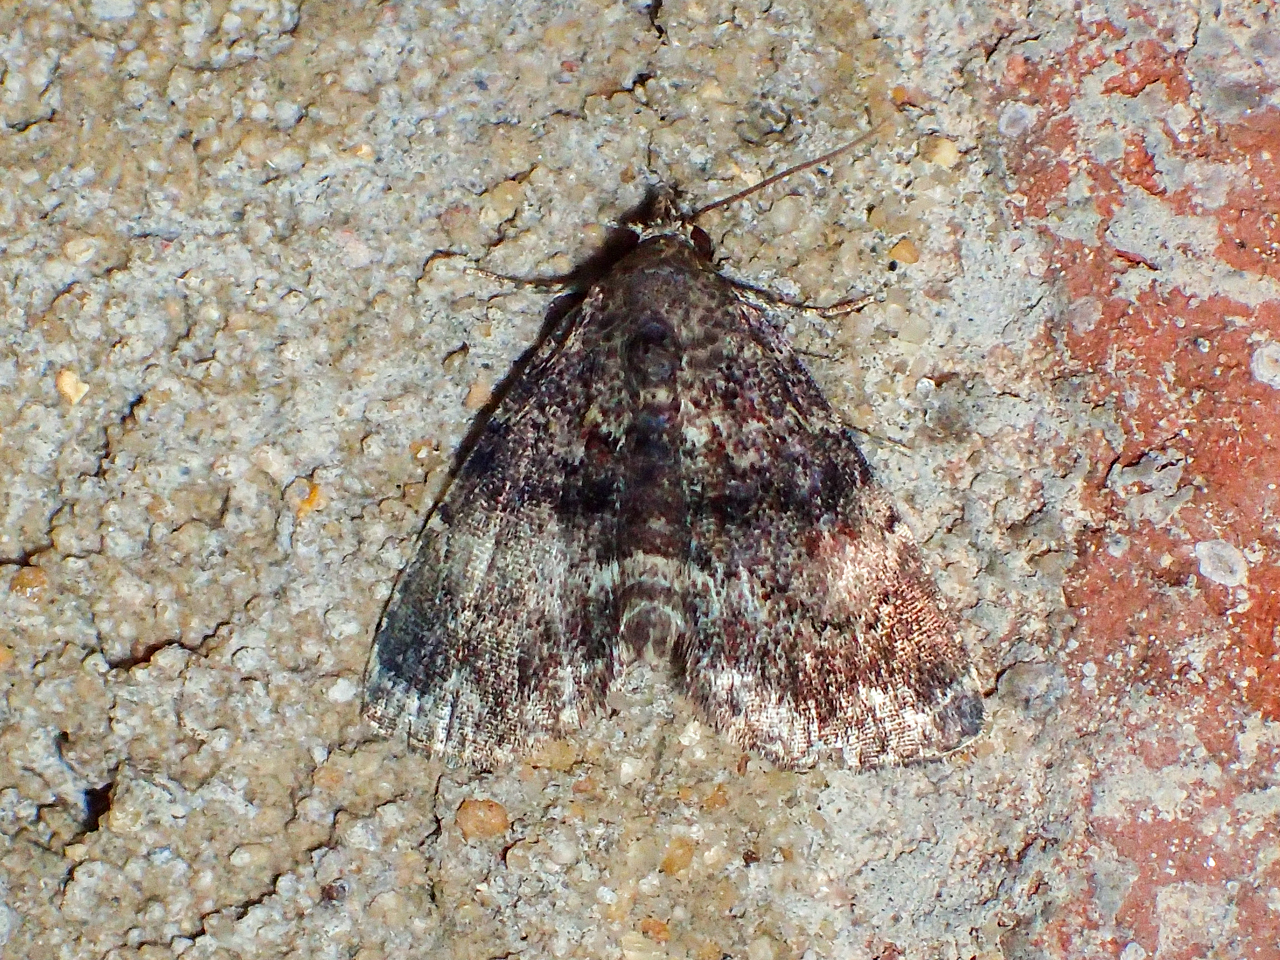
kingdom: Animalia
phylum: Arthropoda
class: Insecta
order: Lepidoptera
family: Erebidae
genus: Metalectra
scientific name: Metalectra richardsi
